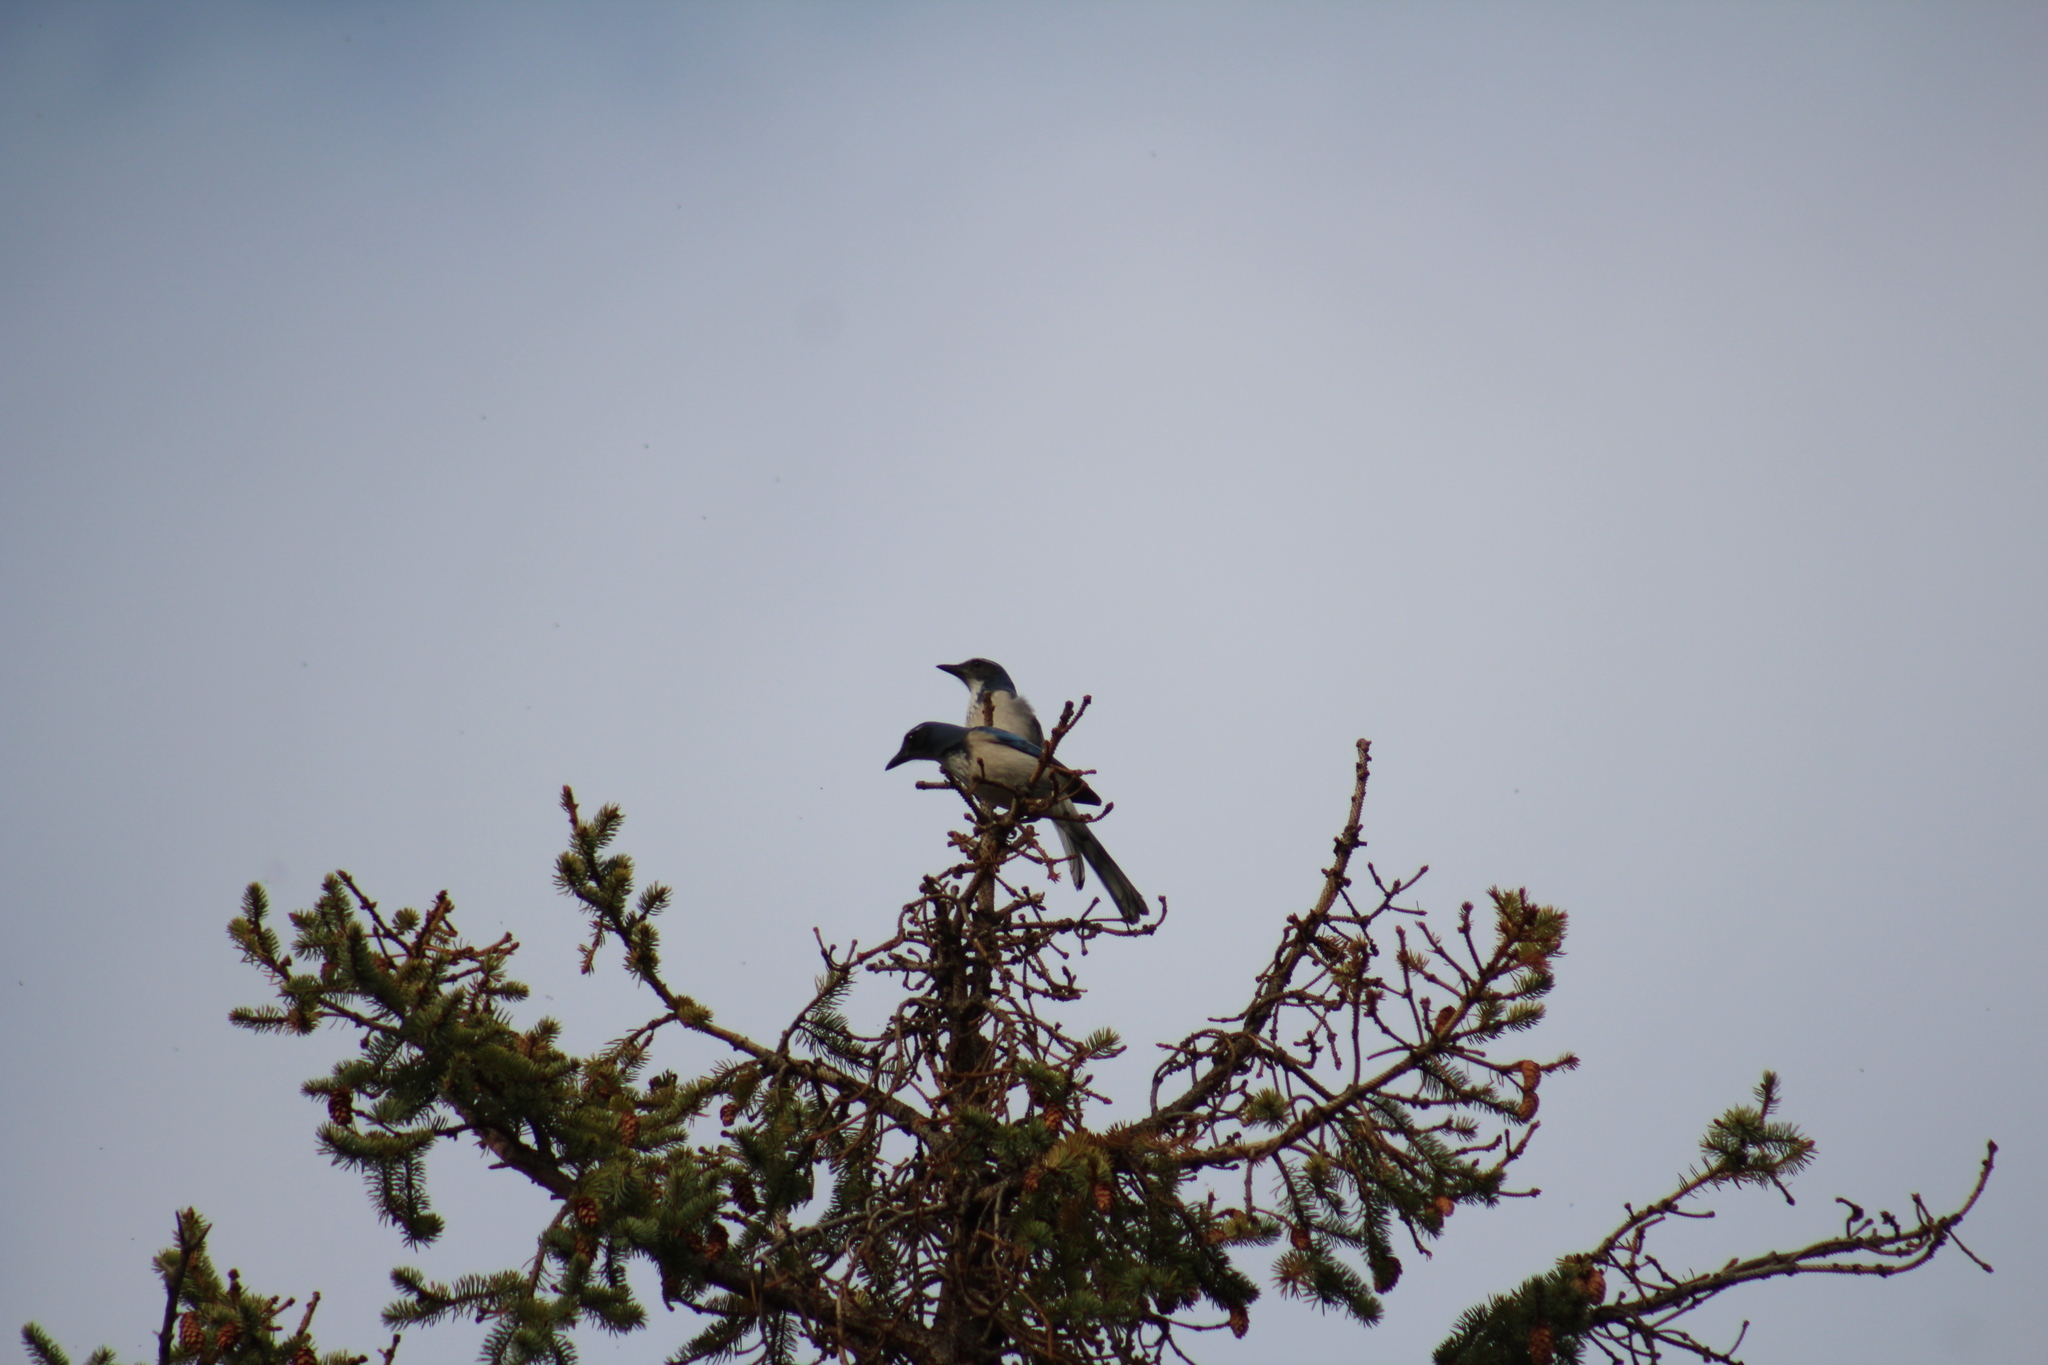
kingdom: Animalia
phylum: Chordata
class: Aves
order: Passeriformes
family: Corvidae
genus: Aphelocoma
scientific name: Aphelocoma californica
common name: California scrub-jay
